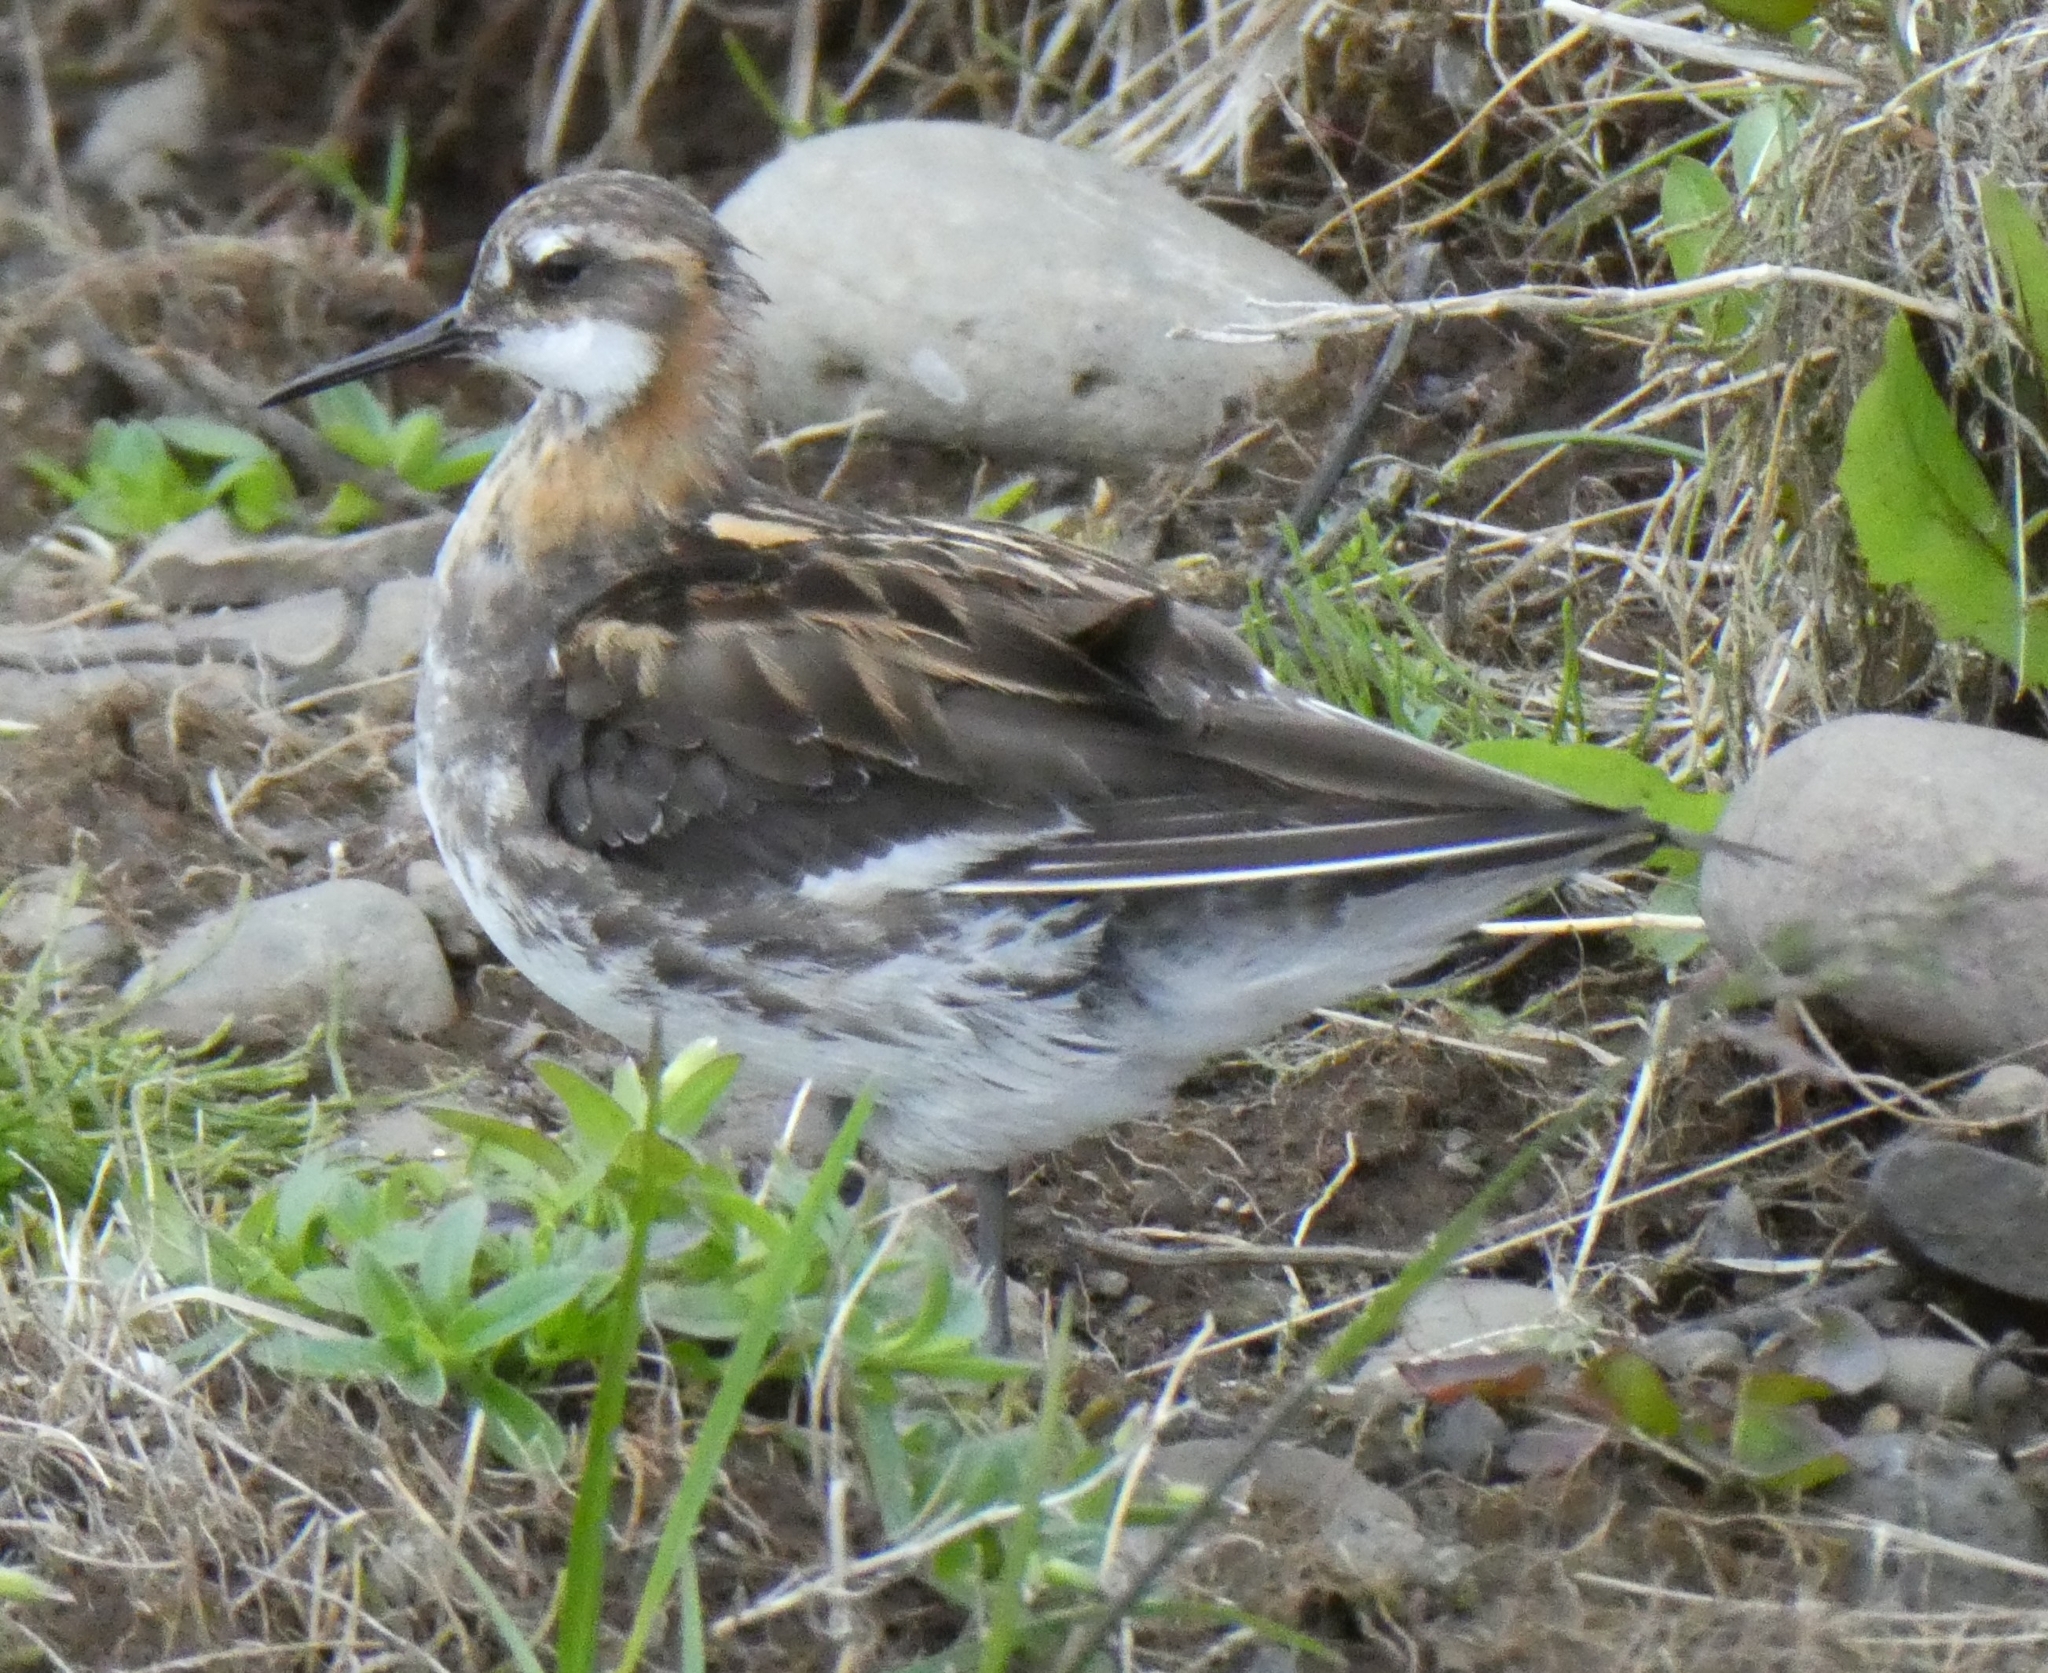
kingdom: Animalia
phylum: Chordata
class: Aves
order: Charadriiformes
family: Scolopacidae
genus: Phalaropus
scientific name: Phalaropus lobatus
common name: Red-necked phalarope
